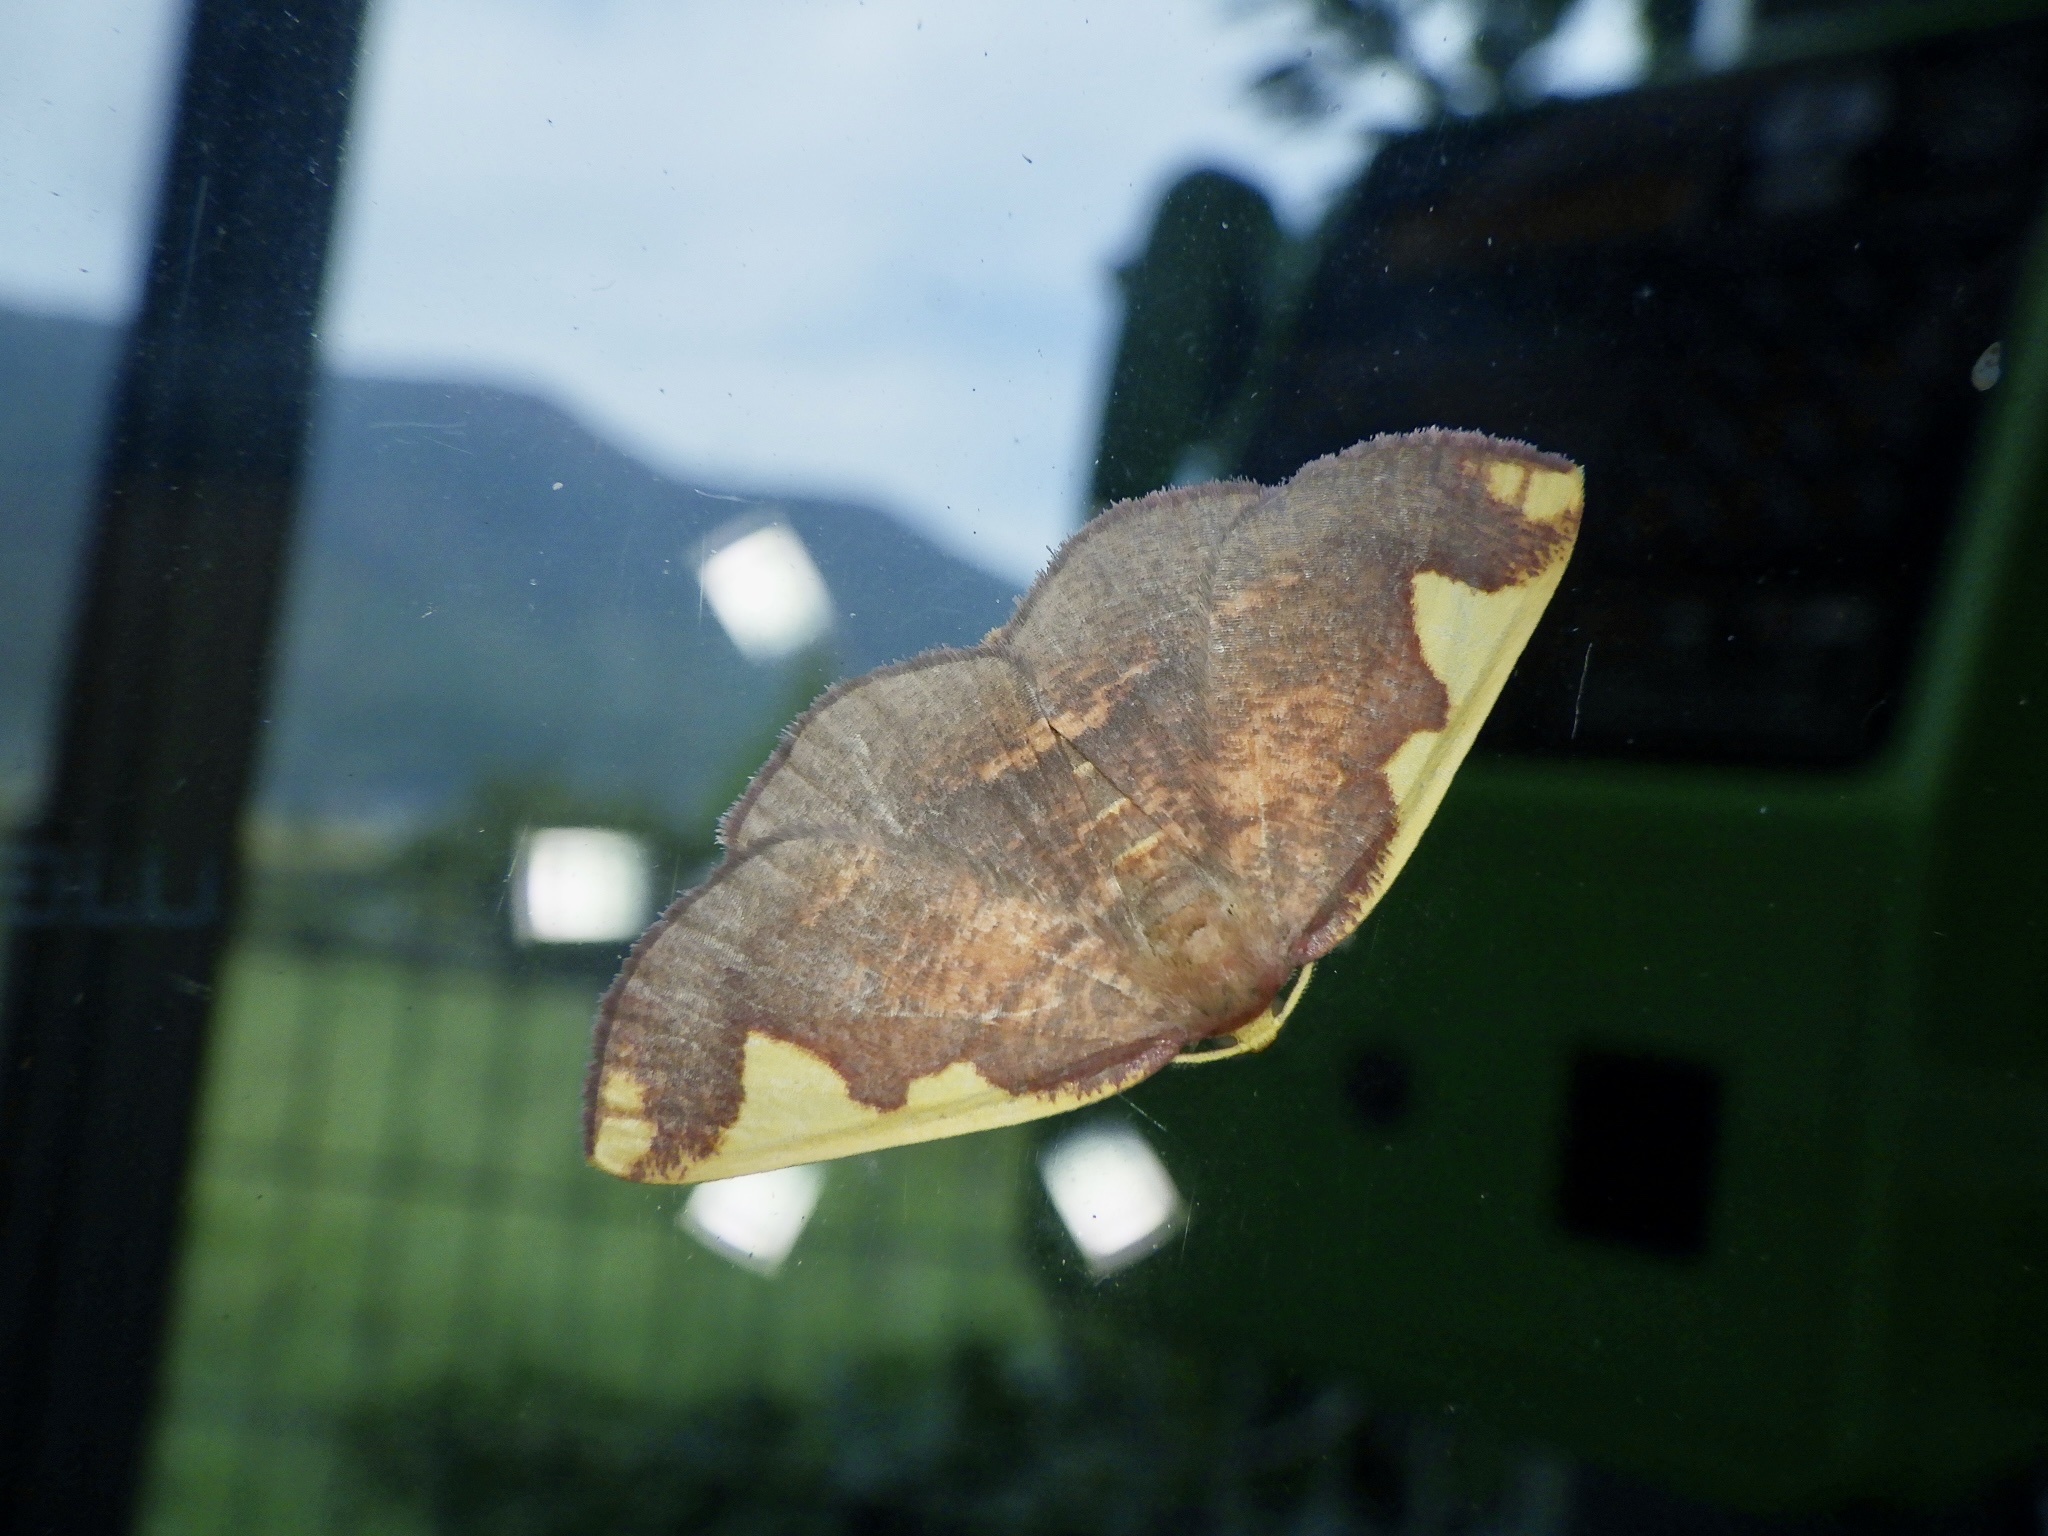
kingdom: Animalia
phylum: Arthropoda
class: Insecta
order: Lepidoptera
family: Geometridae
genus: Nothomiza
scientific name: Nothomiza formosa
